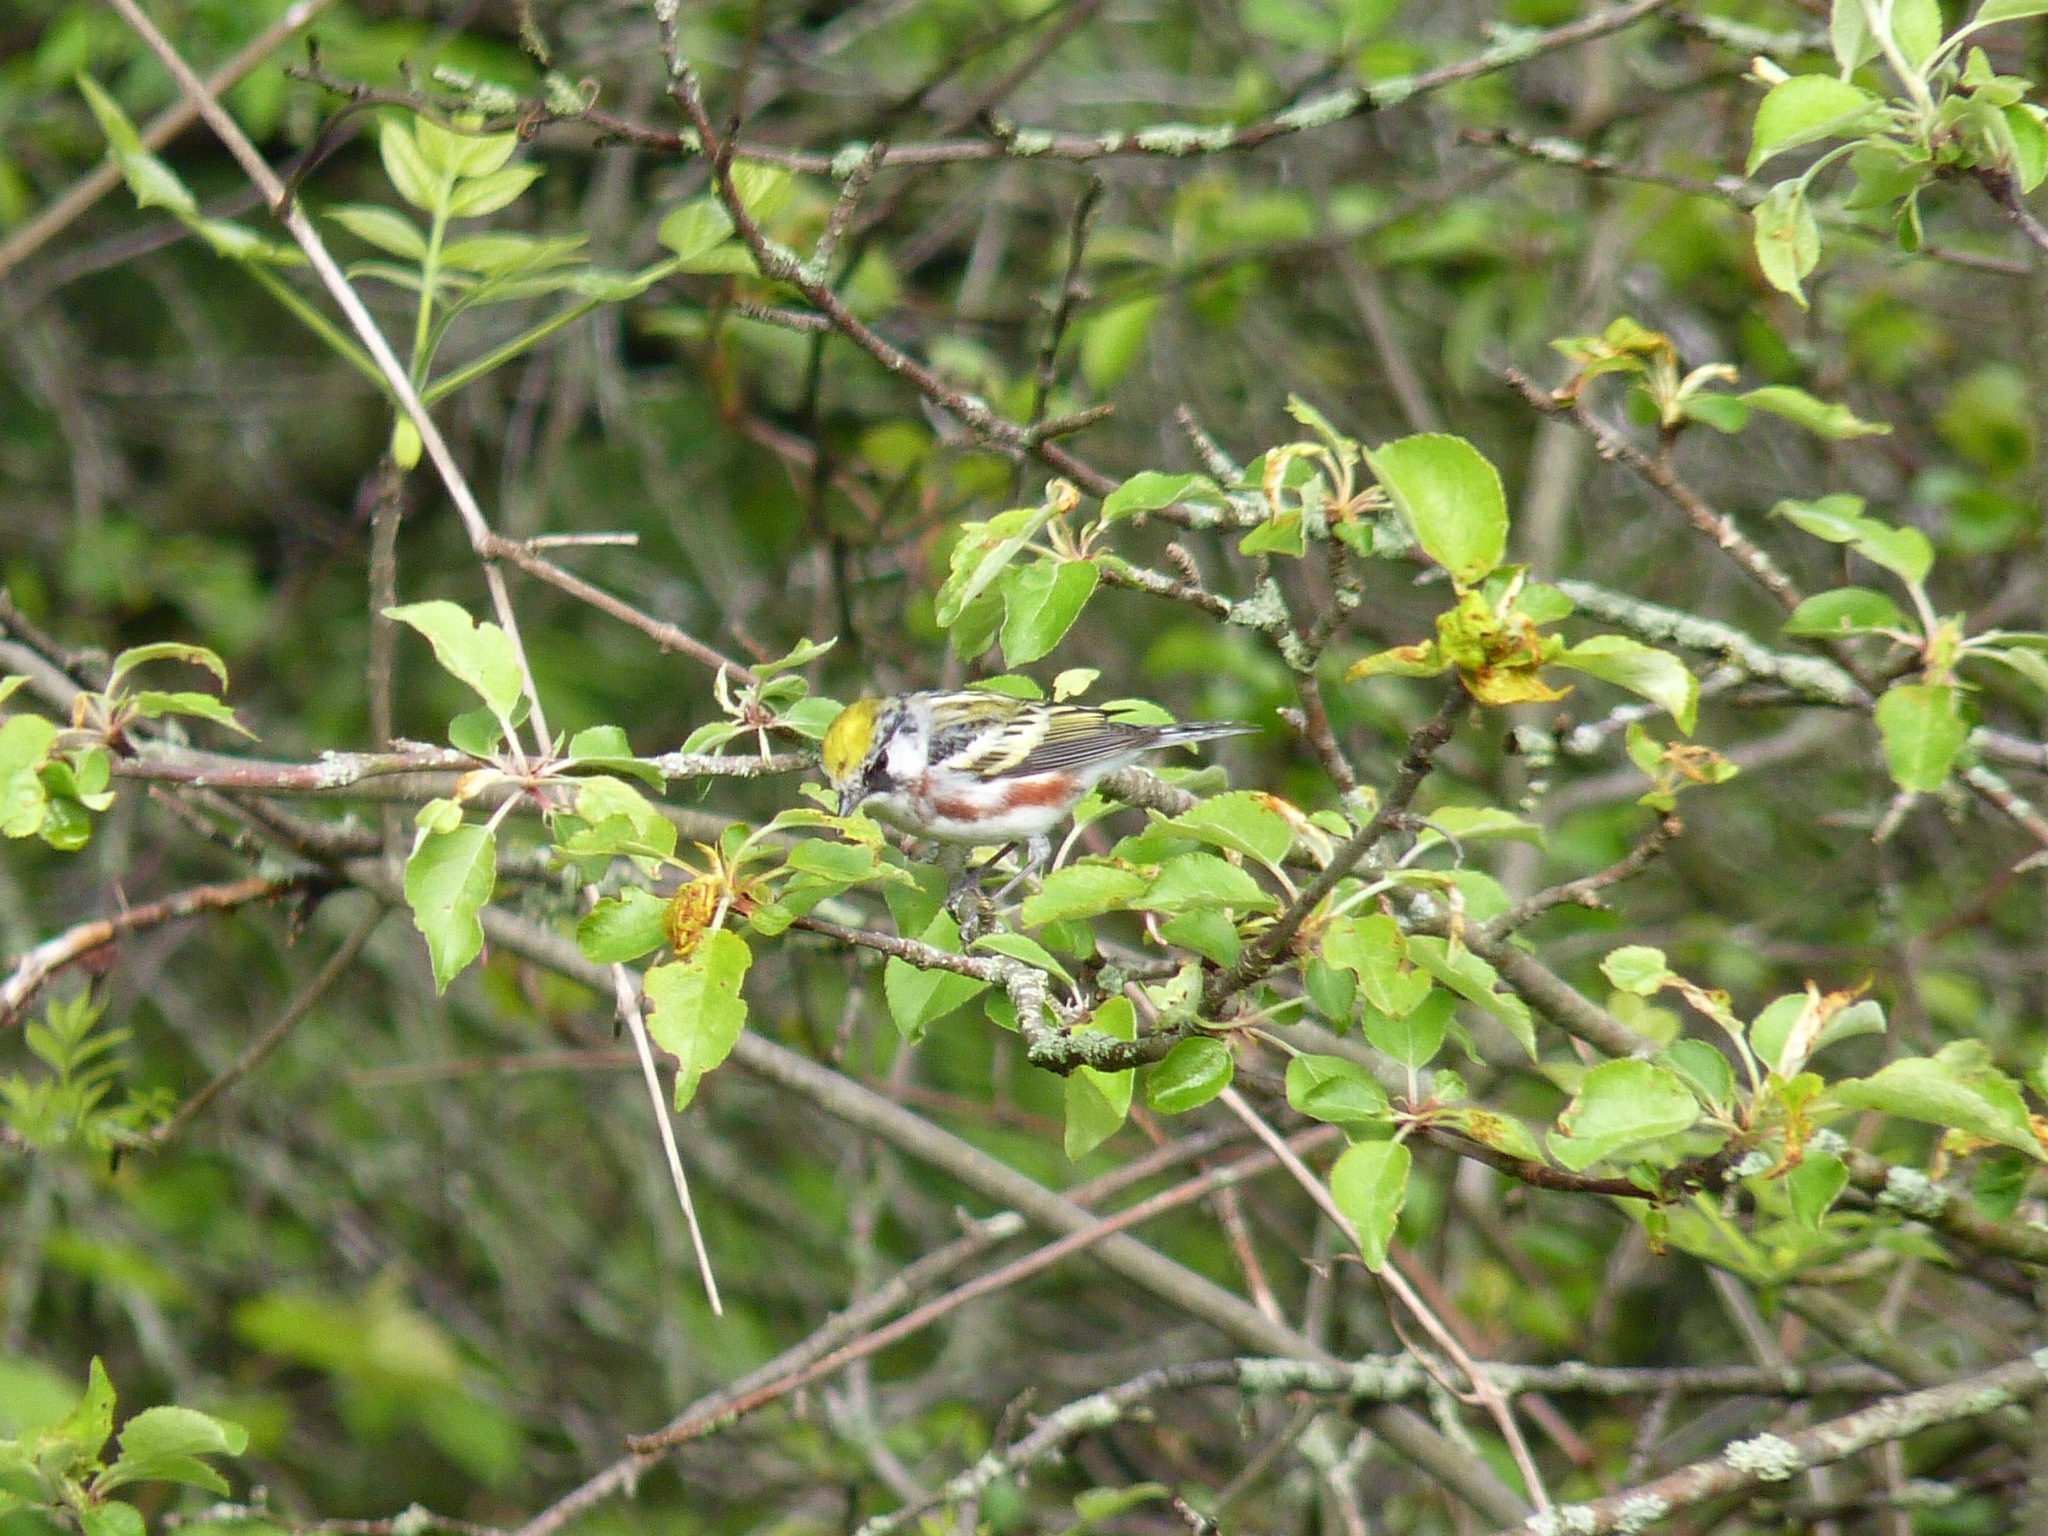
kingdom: Animalia
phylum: Chordata
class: Aves
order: Passeriformes
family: Parulidae
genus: Setophaga
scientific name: Setophaga pensylvanica
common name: Chestnut-sided warbler
